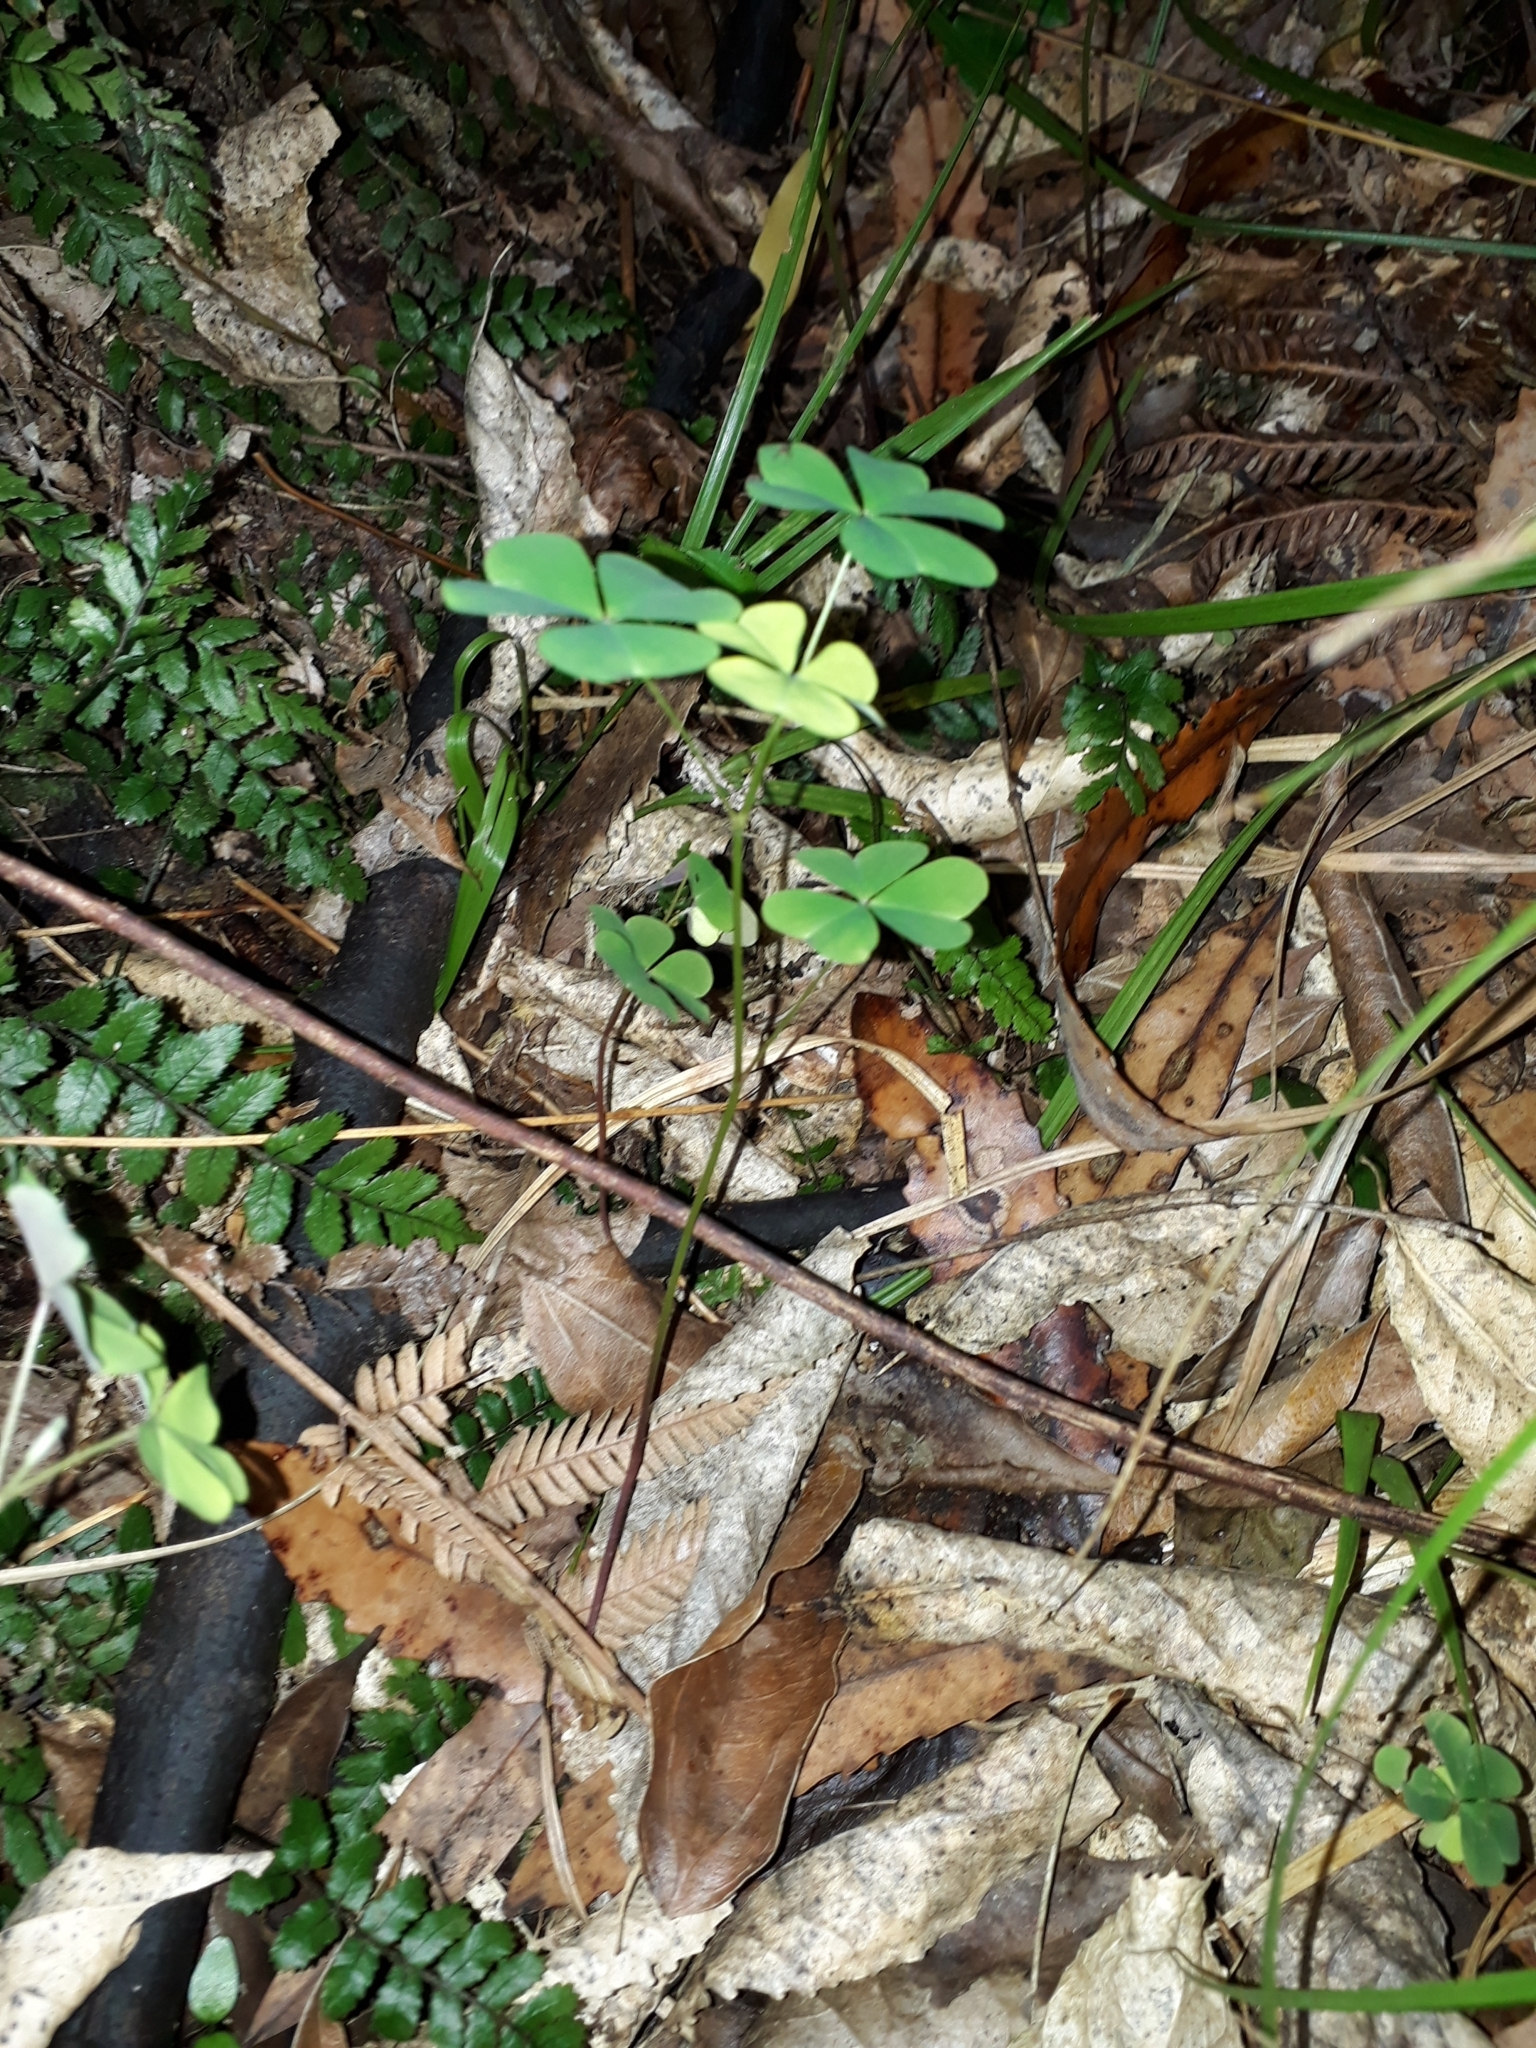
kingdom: Plantae
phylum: Tracheophyta
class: Magnoliopsida
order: Oxalidales
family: Oxalidaceae
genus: Oxalis
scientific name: Oxalis incarnata
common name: Pale pink-sorrel
